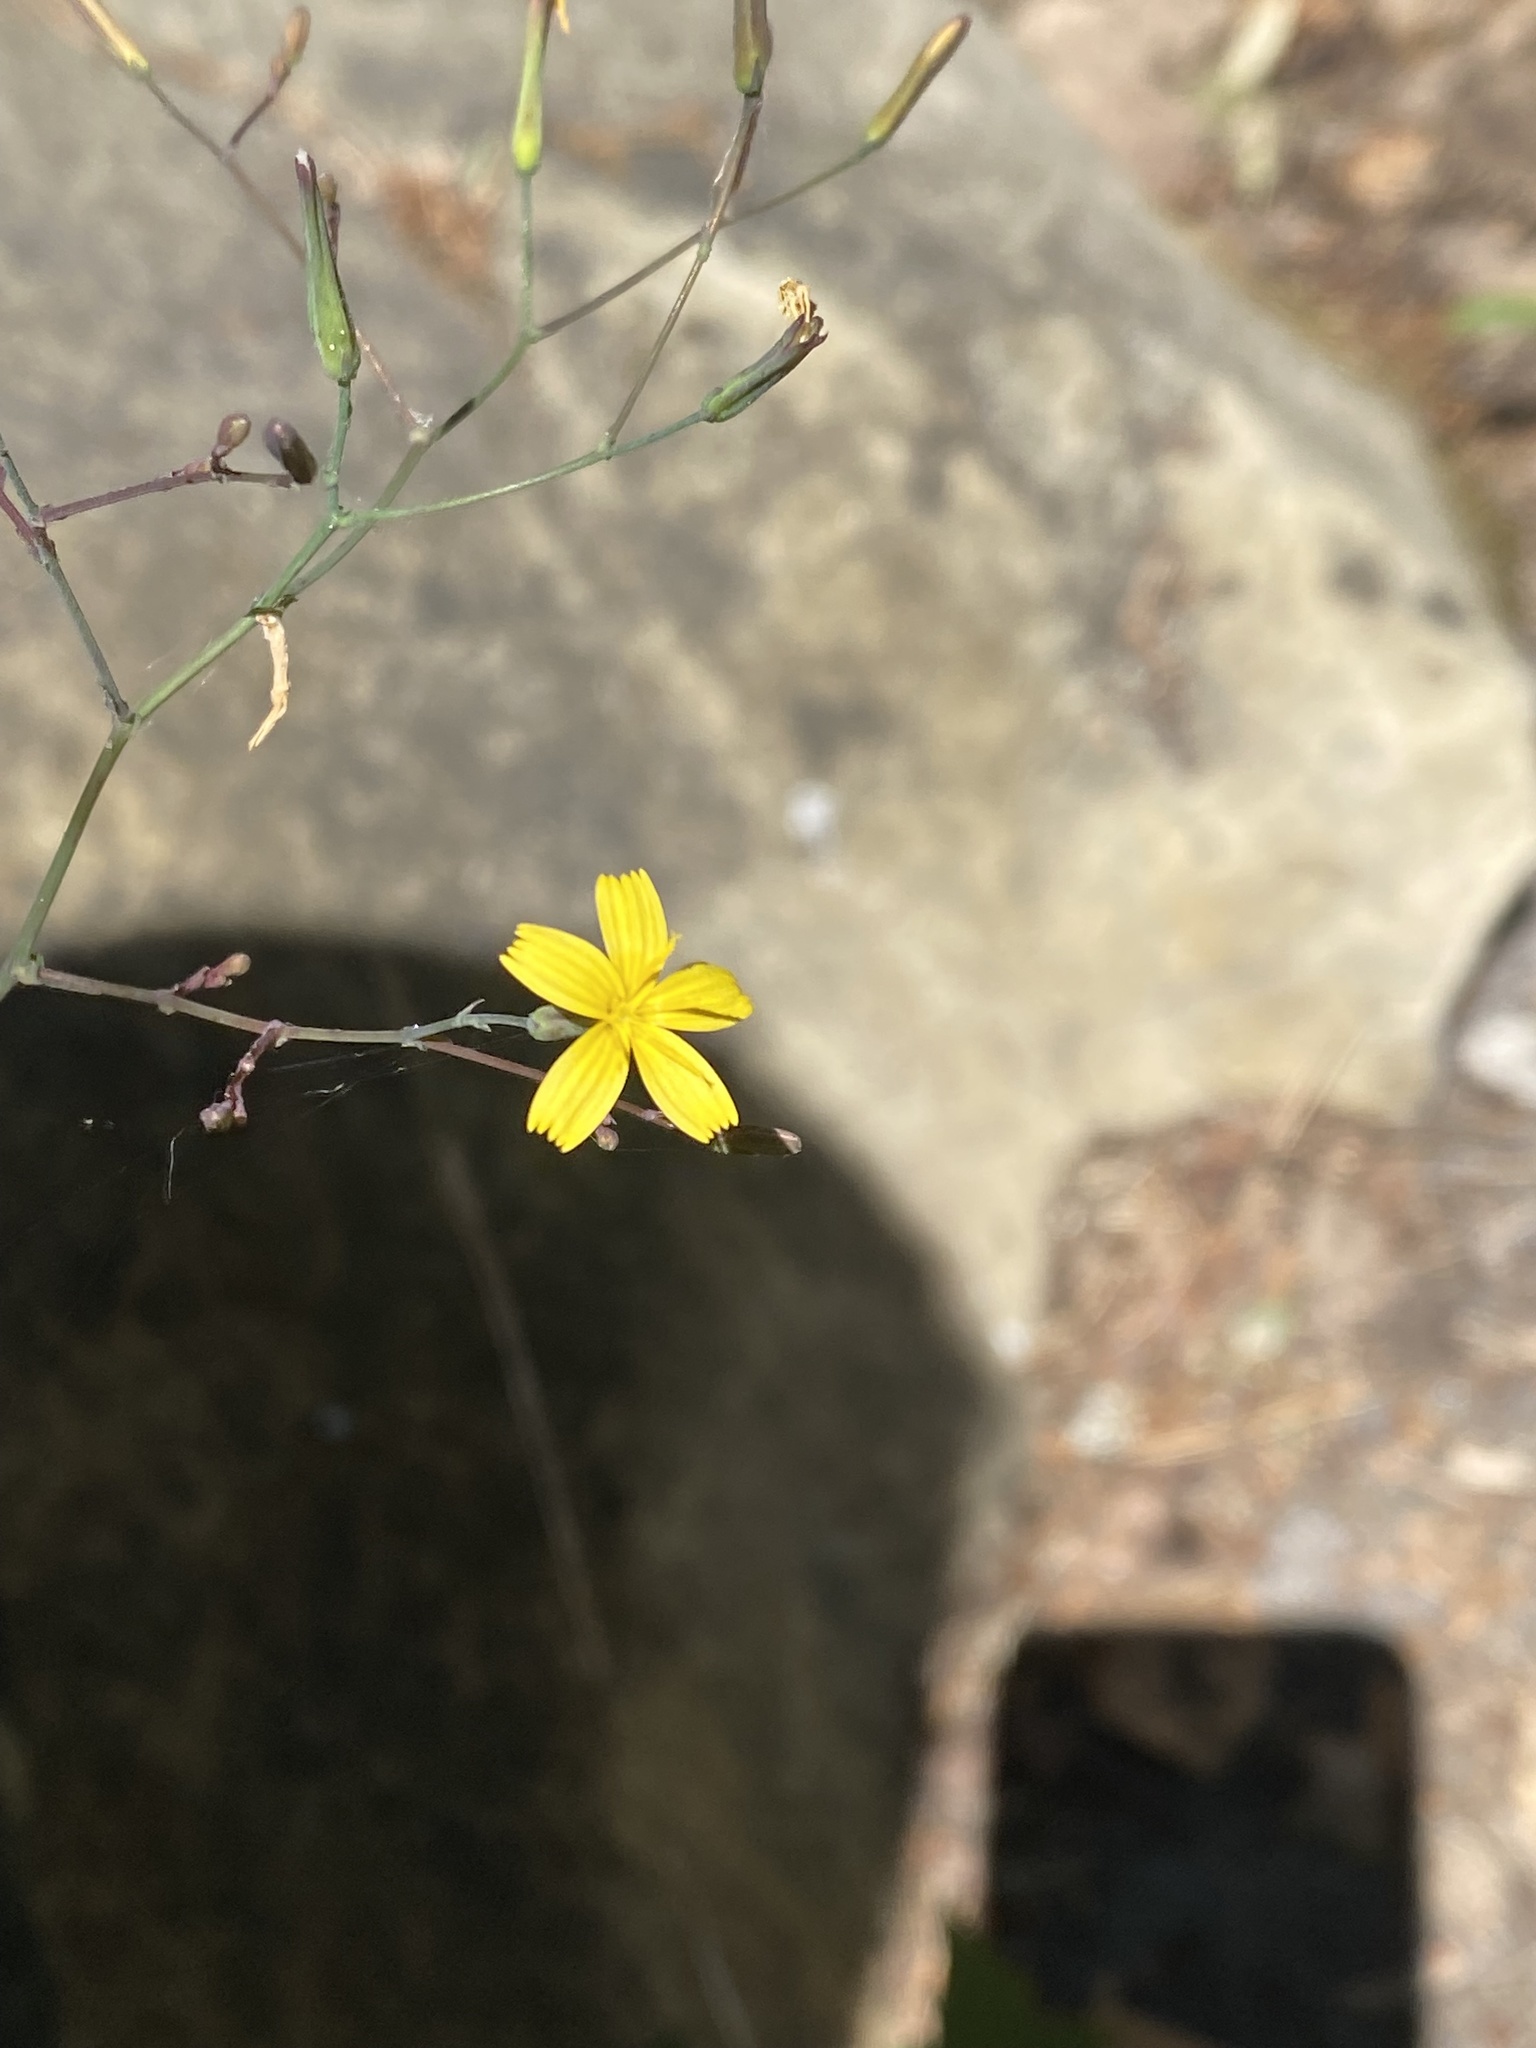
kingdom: Plantae
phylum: Tracheophyta
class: Magnoliopsida
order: Asterales
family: Asteraceae
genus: Mycelis
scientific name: Mycelis muralis
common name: Wall lettuce
